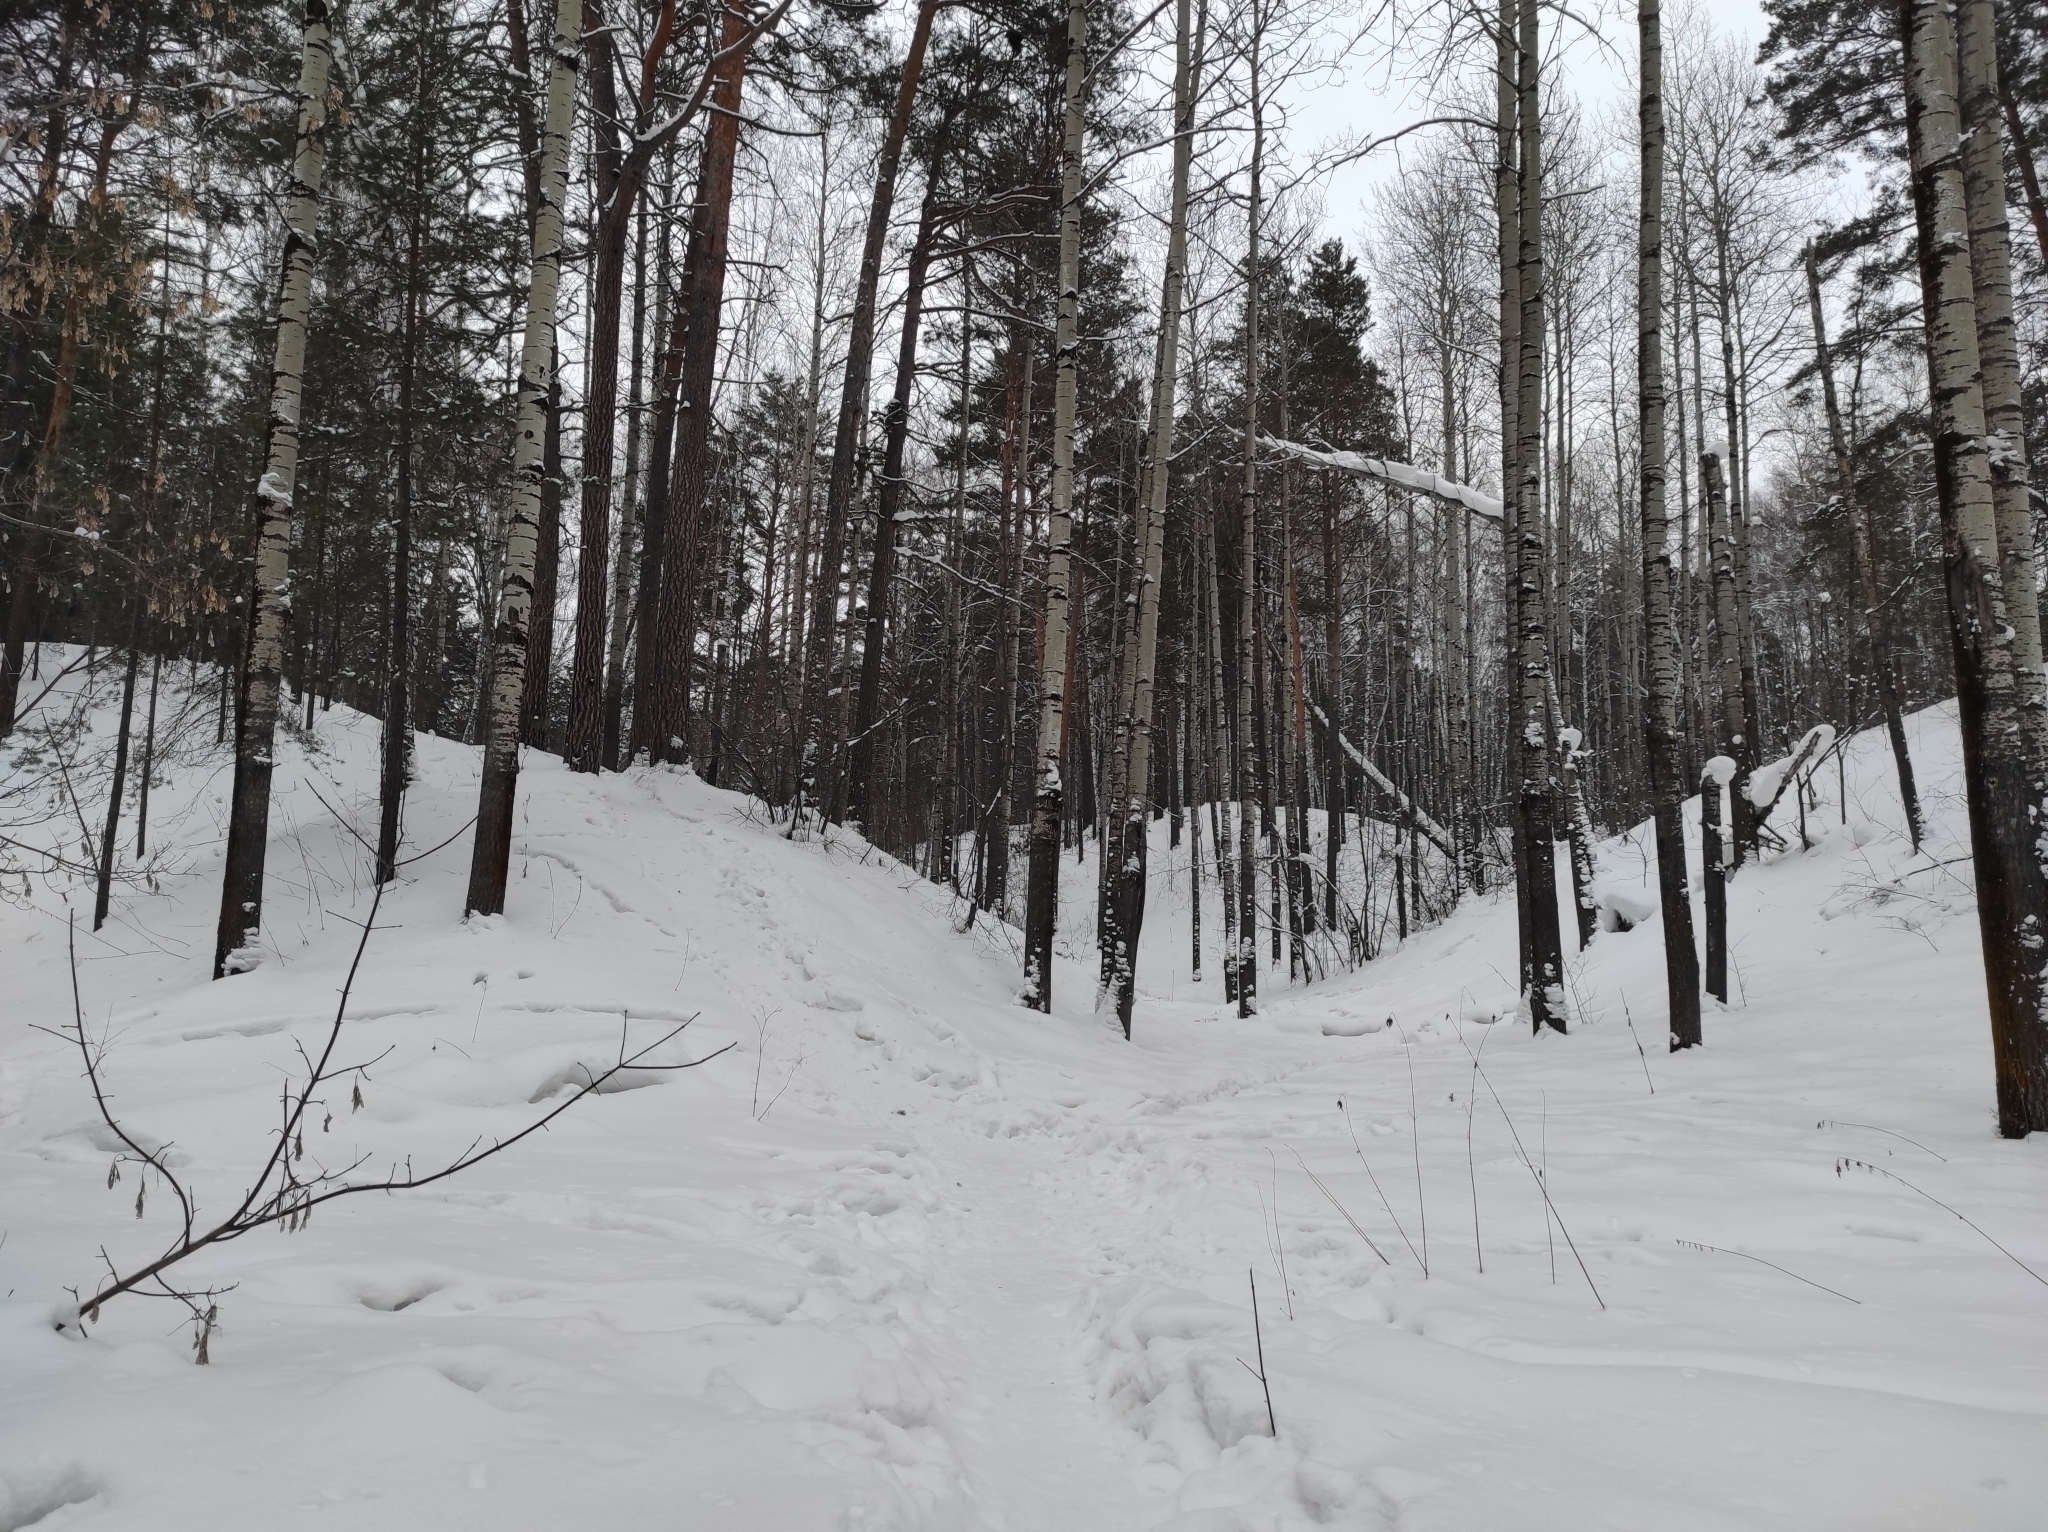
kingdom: Plantae
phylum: Tracheophyta
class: Magnoliopsida
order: Malpighiales
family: Salicaceae
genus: Populus
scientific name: Populus tremula
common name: European aspen
